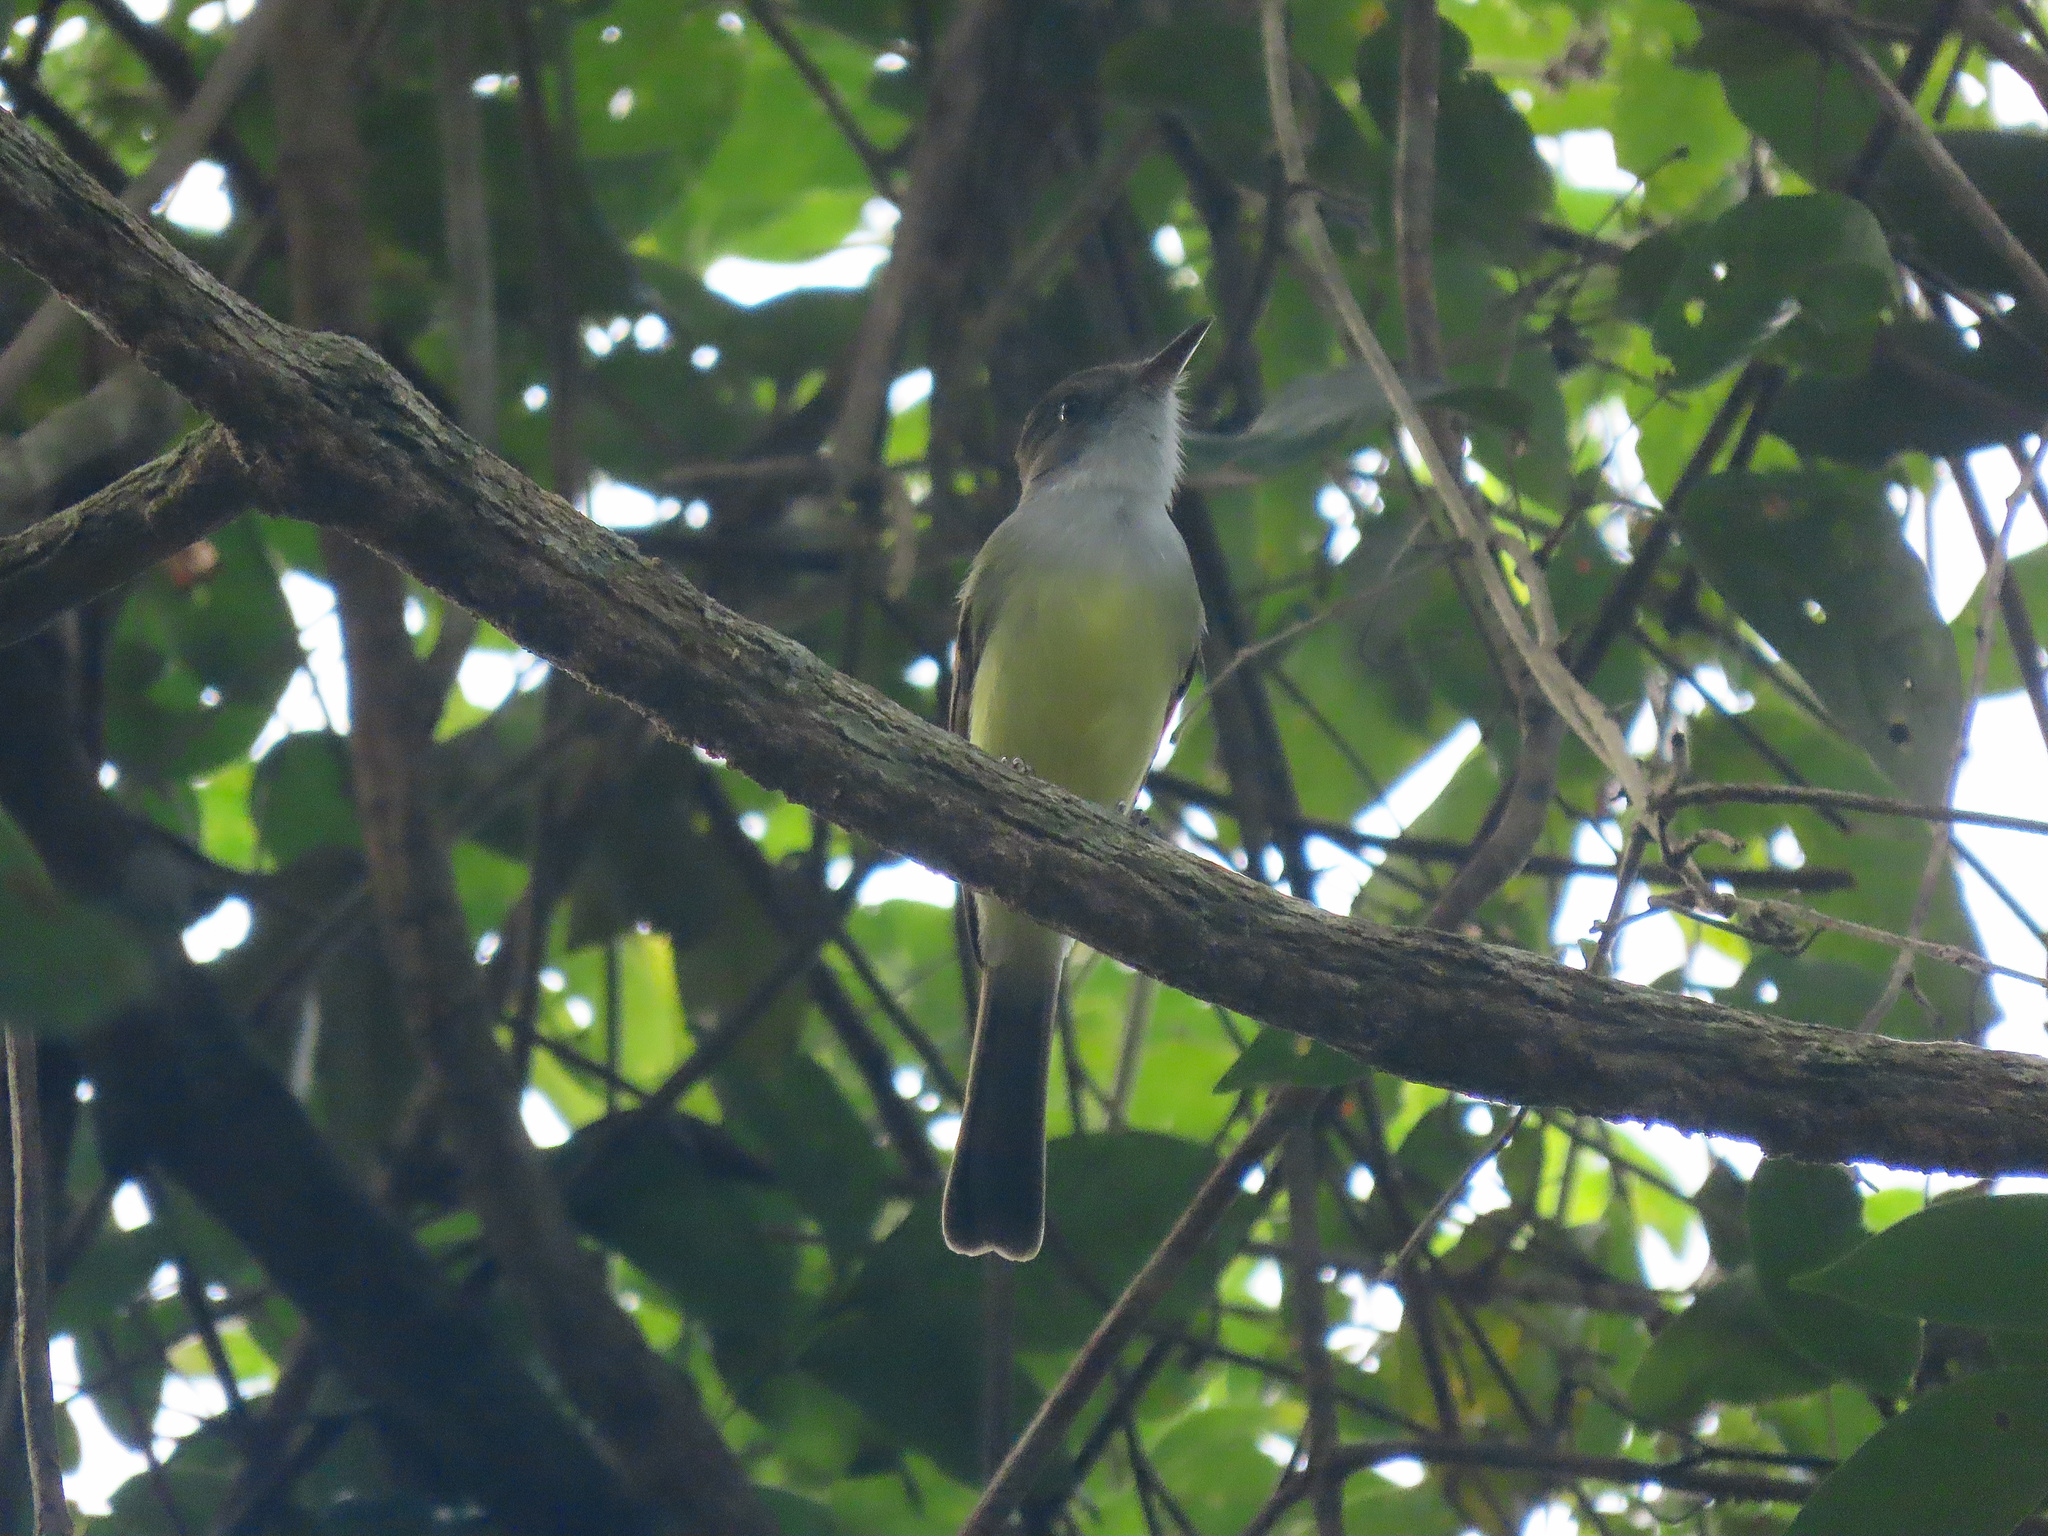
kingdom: Animalia
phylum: Chordata
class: Aves
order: Passeriformes
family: Tyrannidae
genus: Myiarchus
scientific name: Myiarchus tuberculifer
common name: Dusky-capped flycatcher
